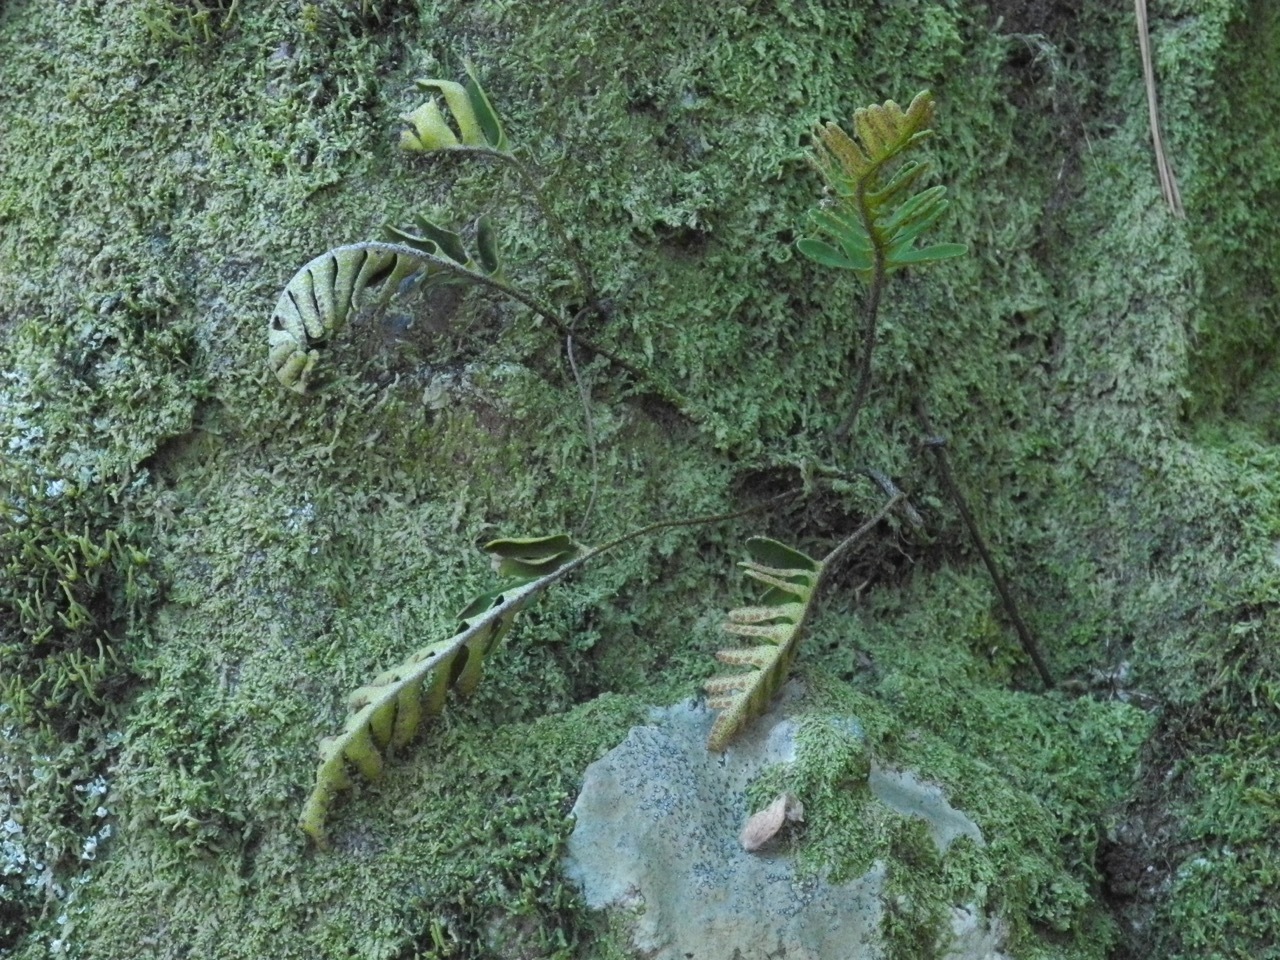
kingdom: Plantae
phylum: Tracheophyta
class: Polypodiopsida
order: Polypodiales
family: Polypodiaceae
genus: Pleopeltis
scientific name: Pleopeltis michauxiana
